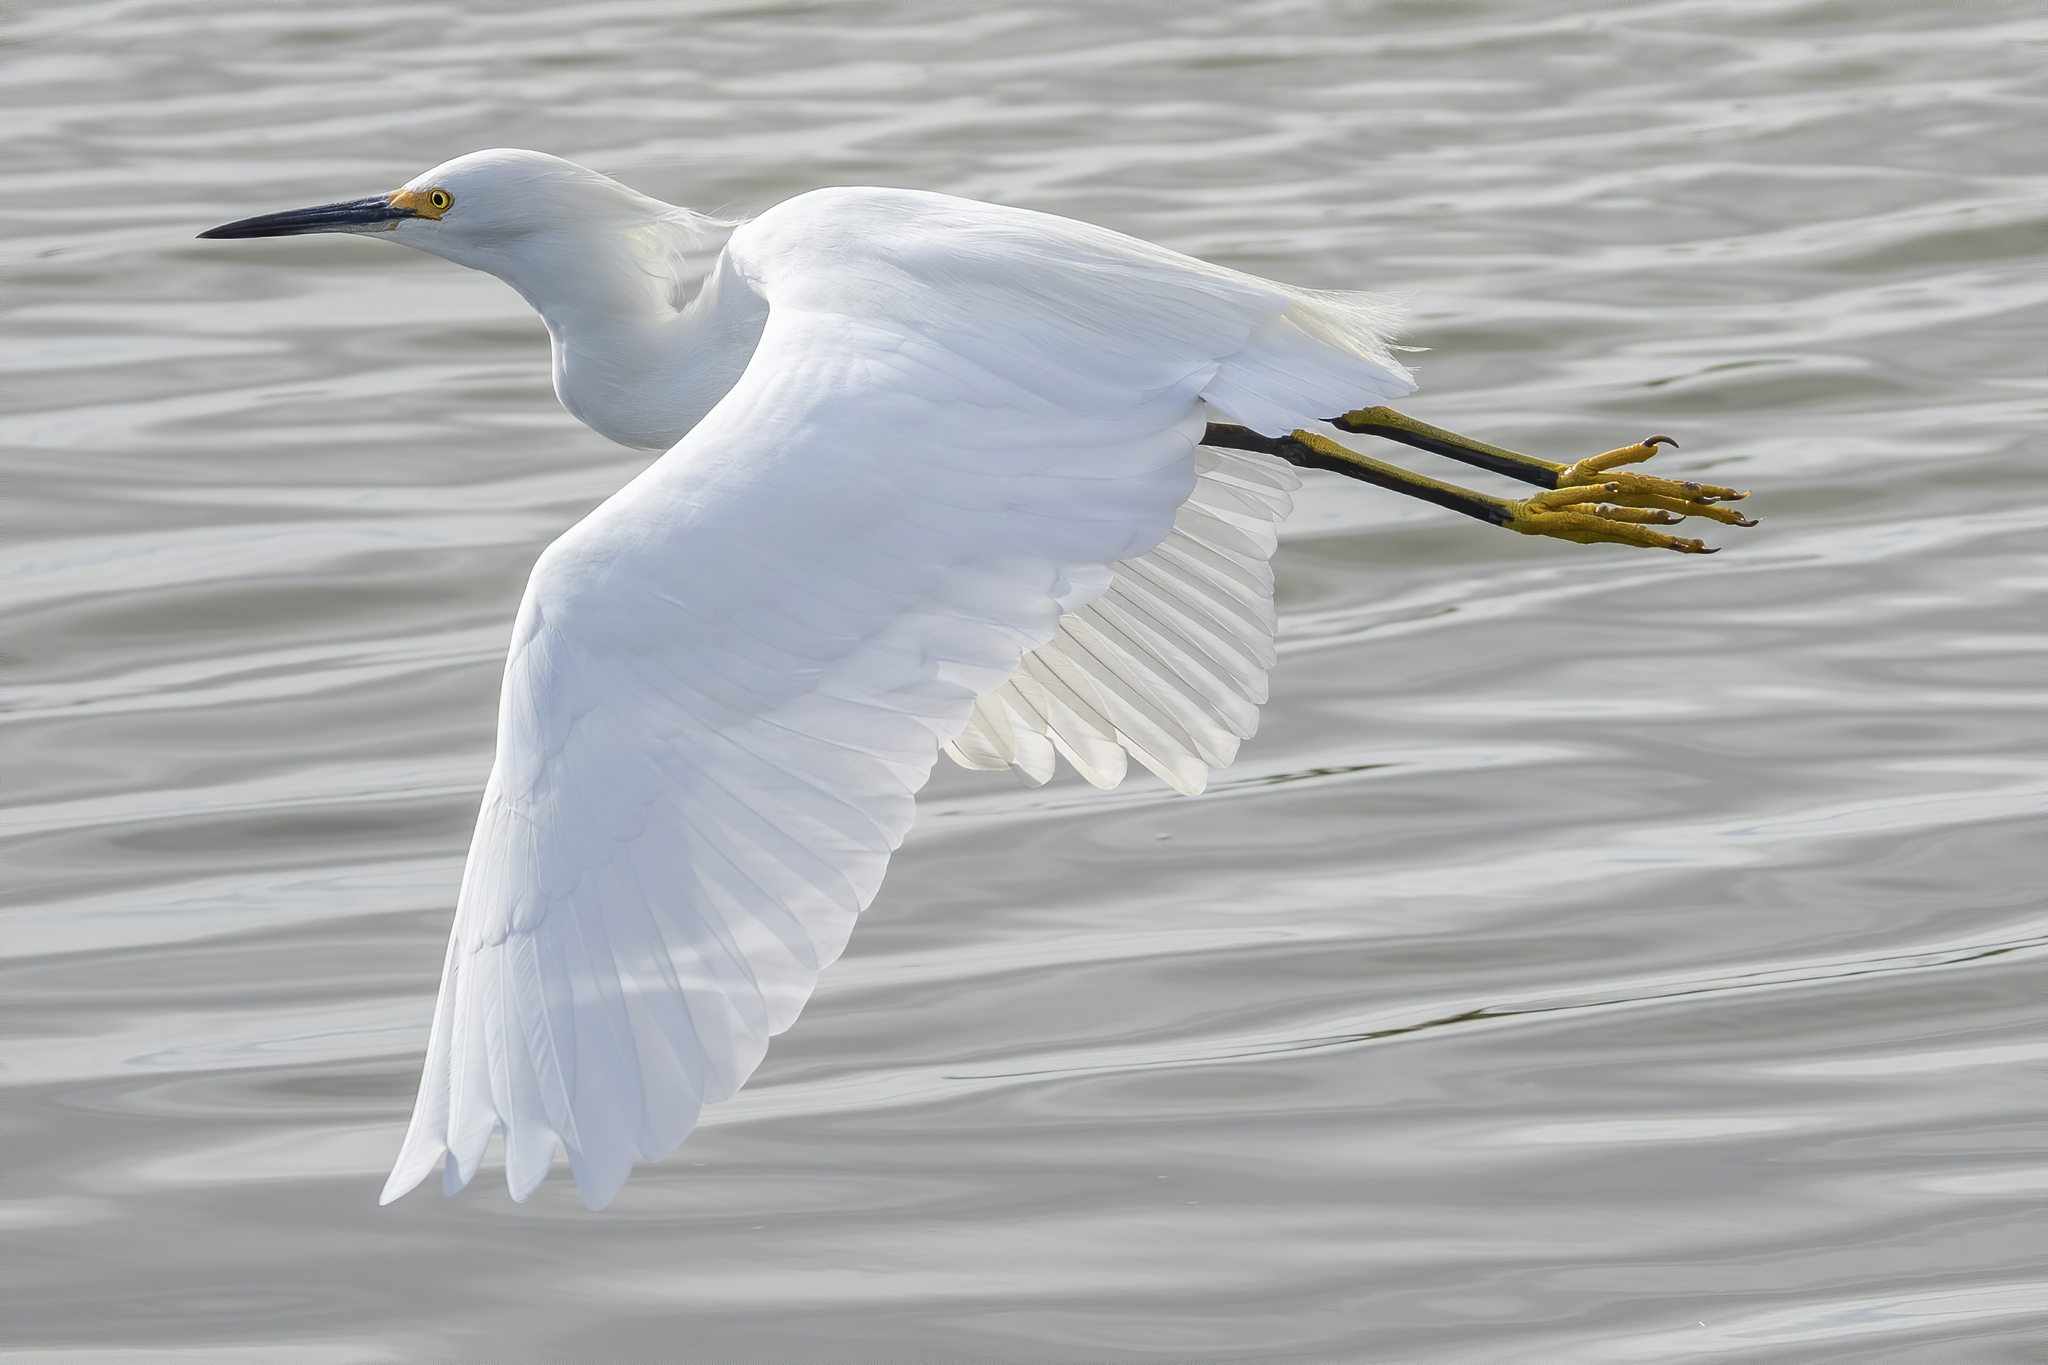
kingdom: Animalia
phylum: Chordata
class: Aves
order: Pelecaniformes
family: Ardeidae
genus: Egretta
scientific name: Egretta thula
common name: Snowy egret
